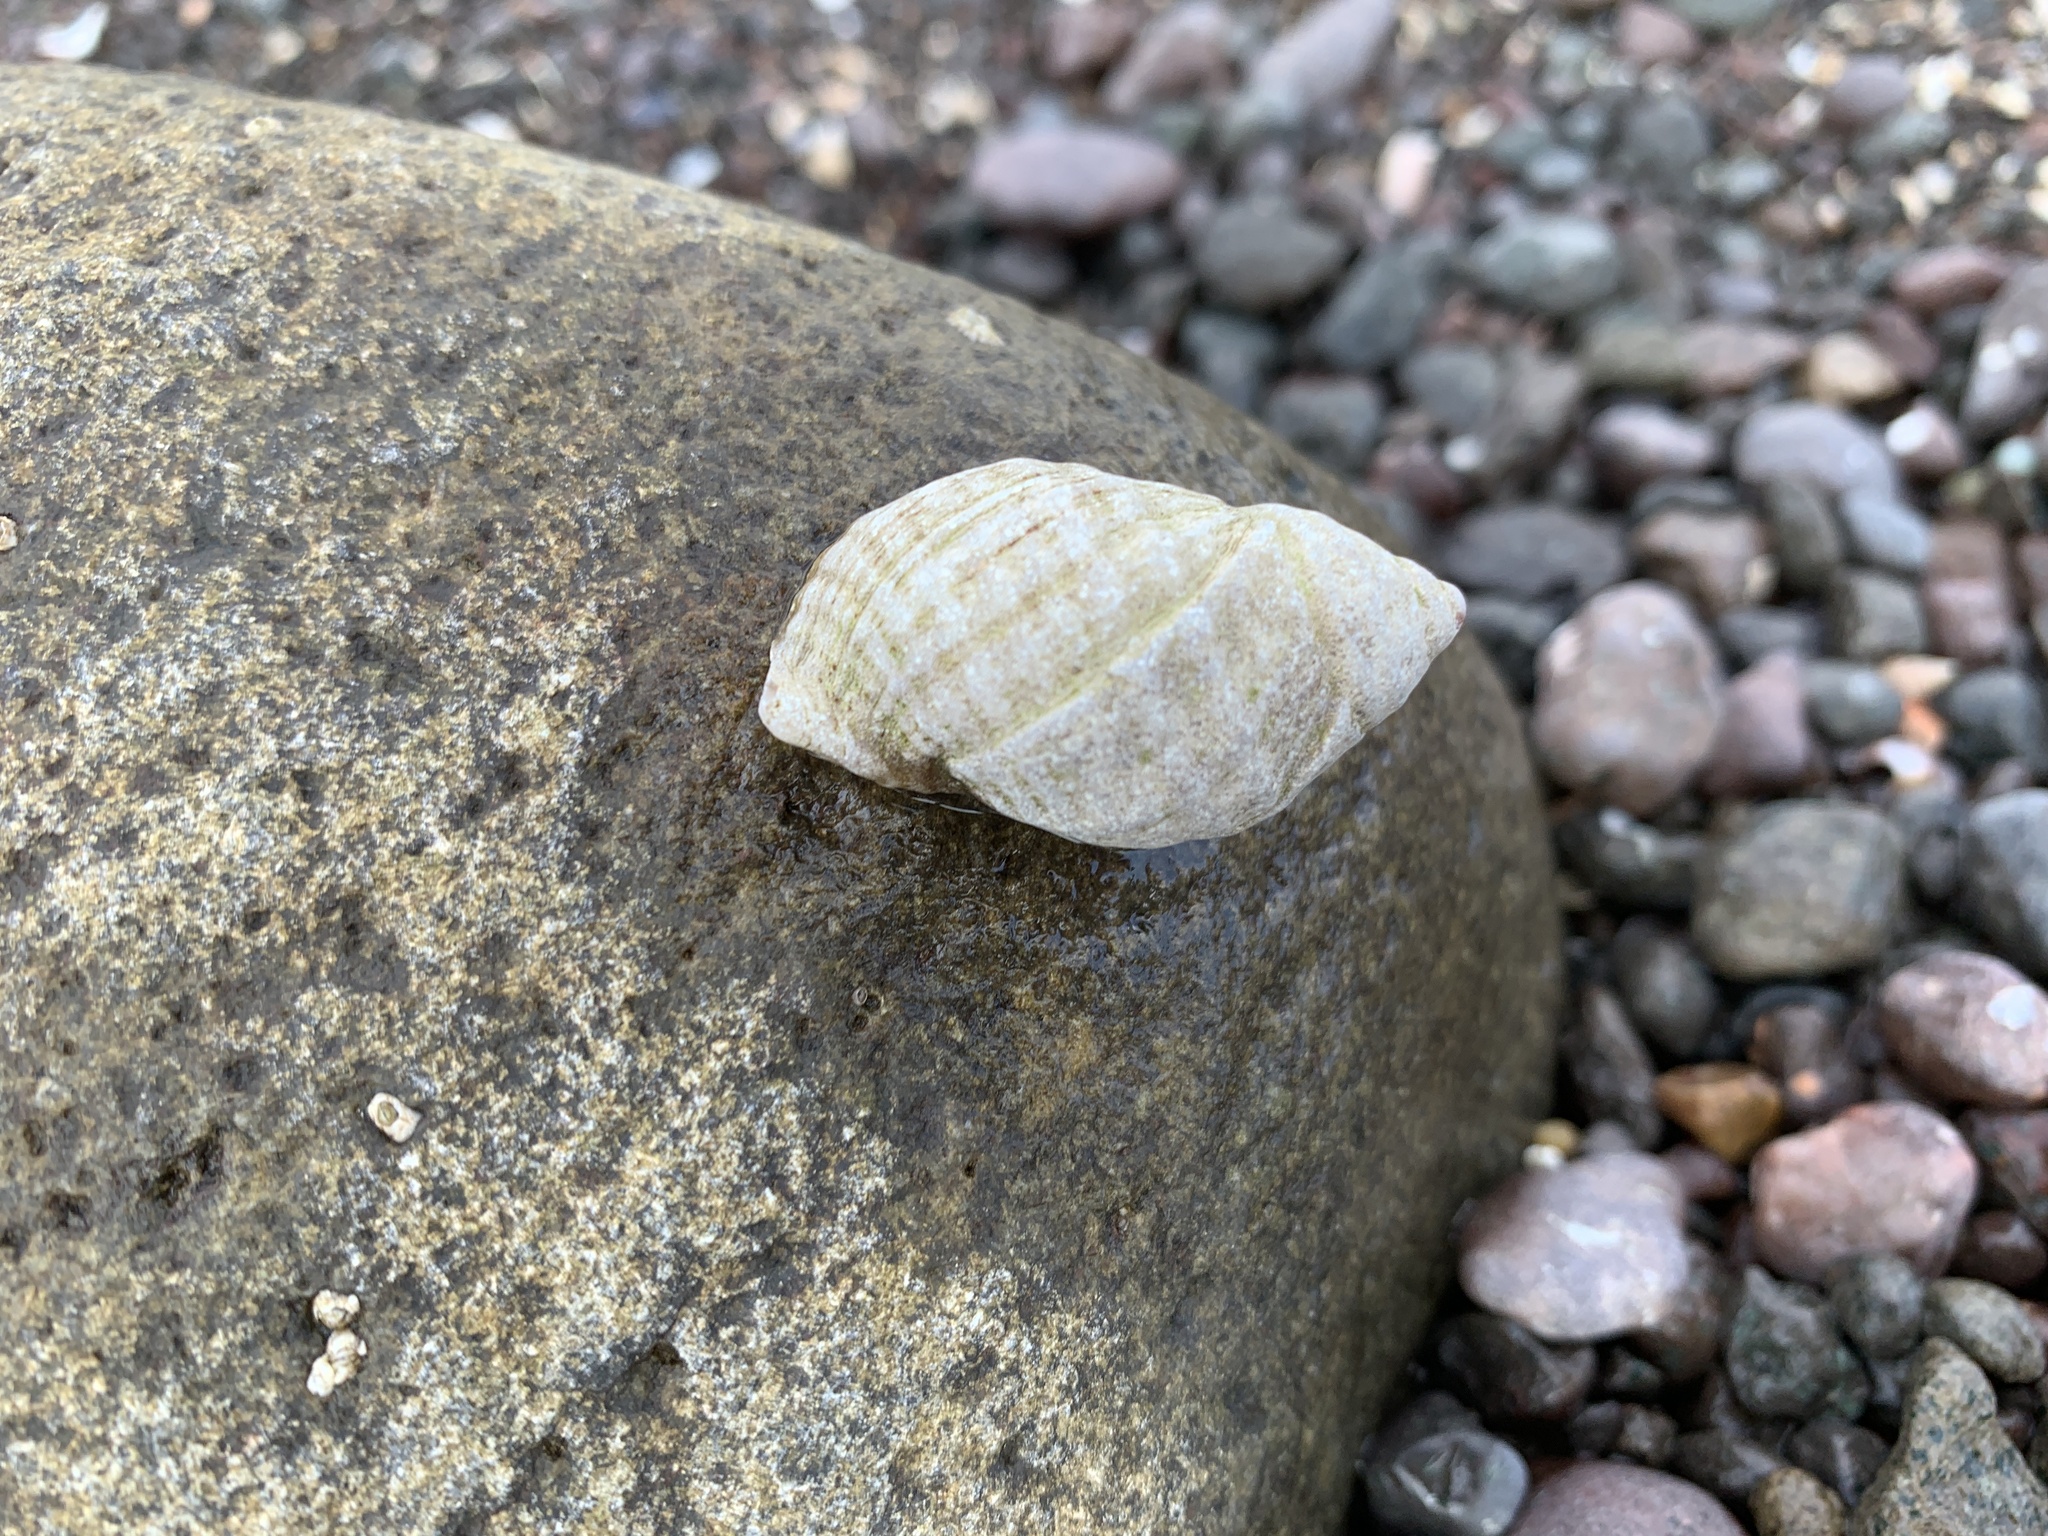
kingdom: Animalia
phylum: Mollusca
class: Gastropoda
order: Neogastropoda
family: Muricidae
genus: Nucella
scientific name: Nucella lapillus
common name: Dog whelk
